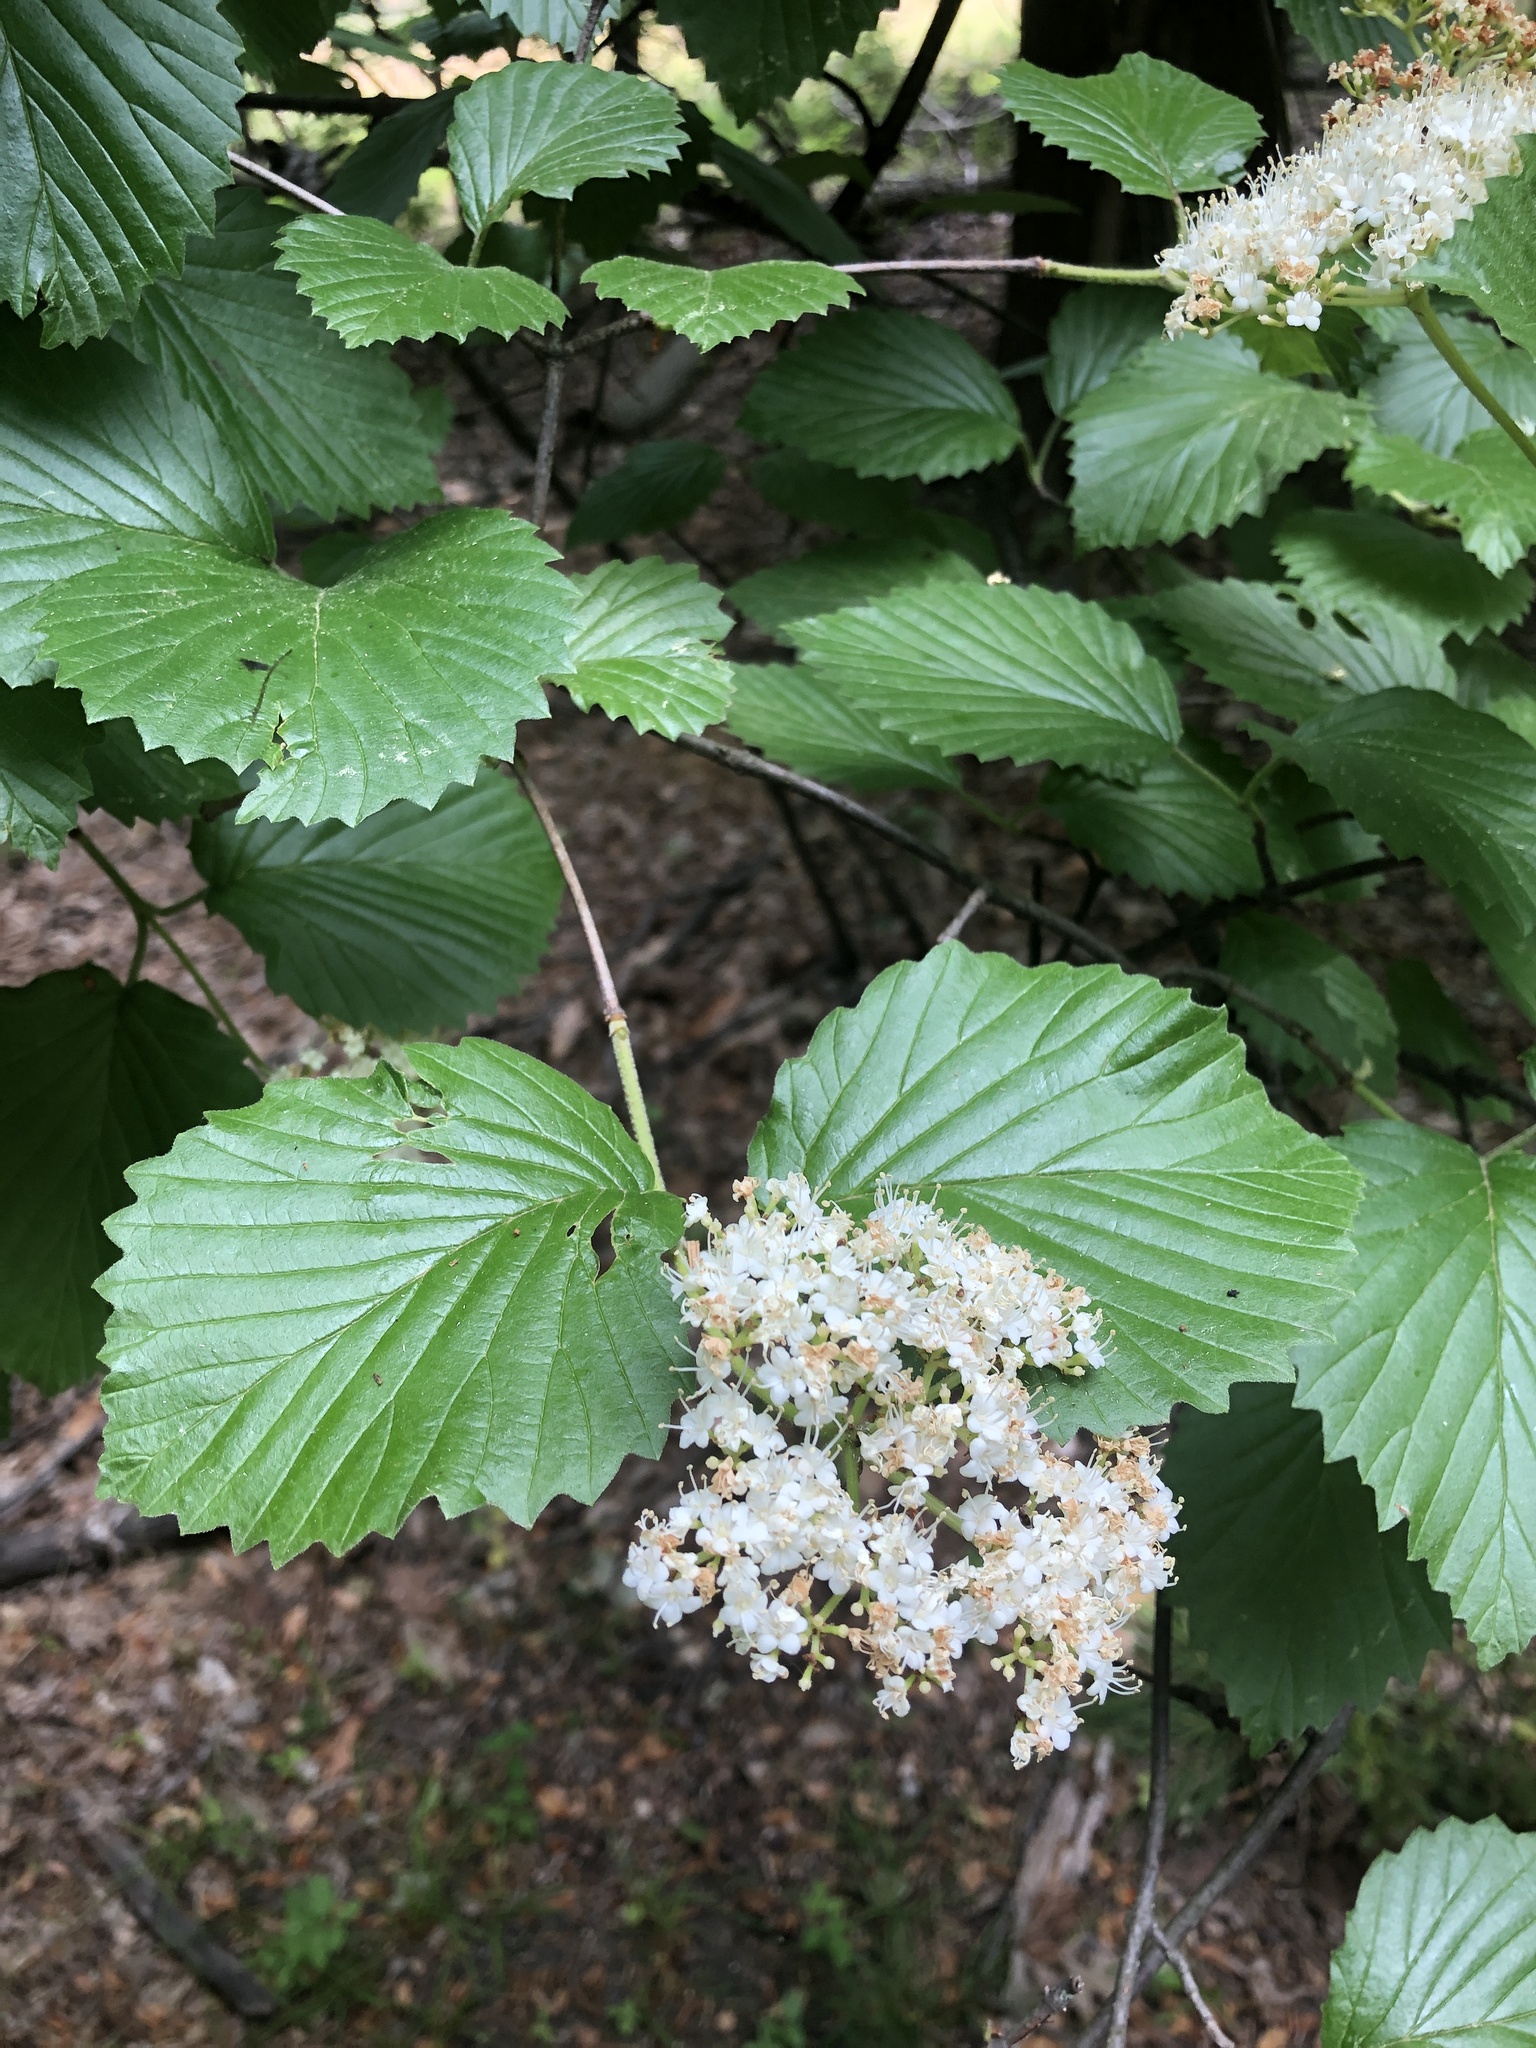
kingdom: Plantae
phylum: Tracheophyta
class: Magnoliopsida
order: Dipsacales
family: Viburnaceae
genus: Viburnum
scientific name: Viburnum dentatum
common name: Arrow-wood
